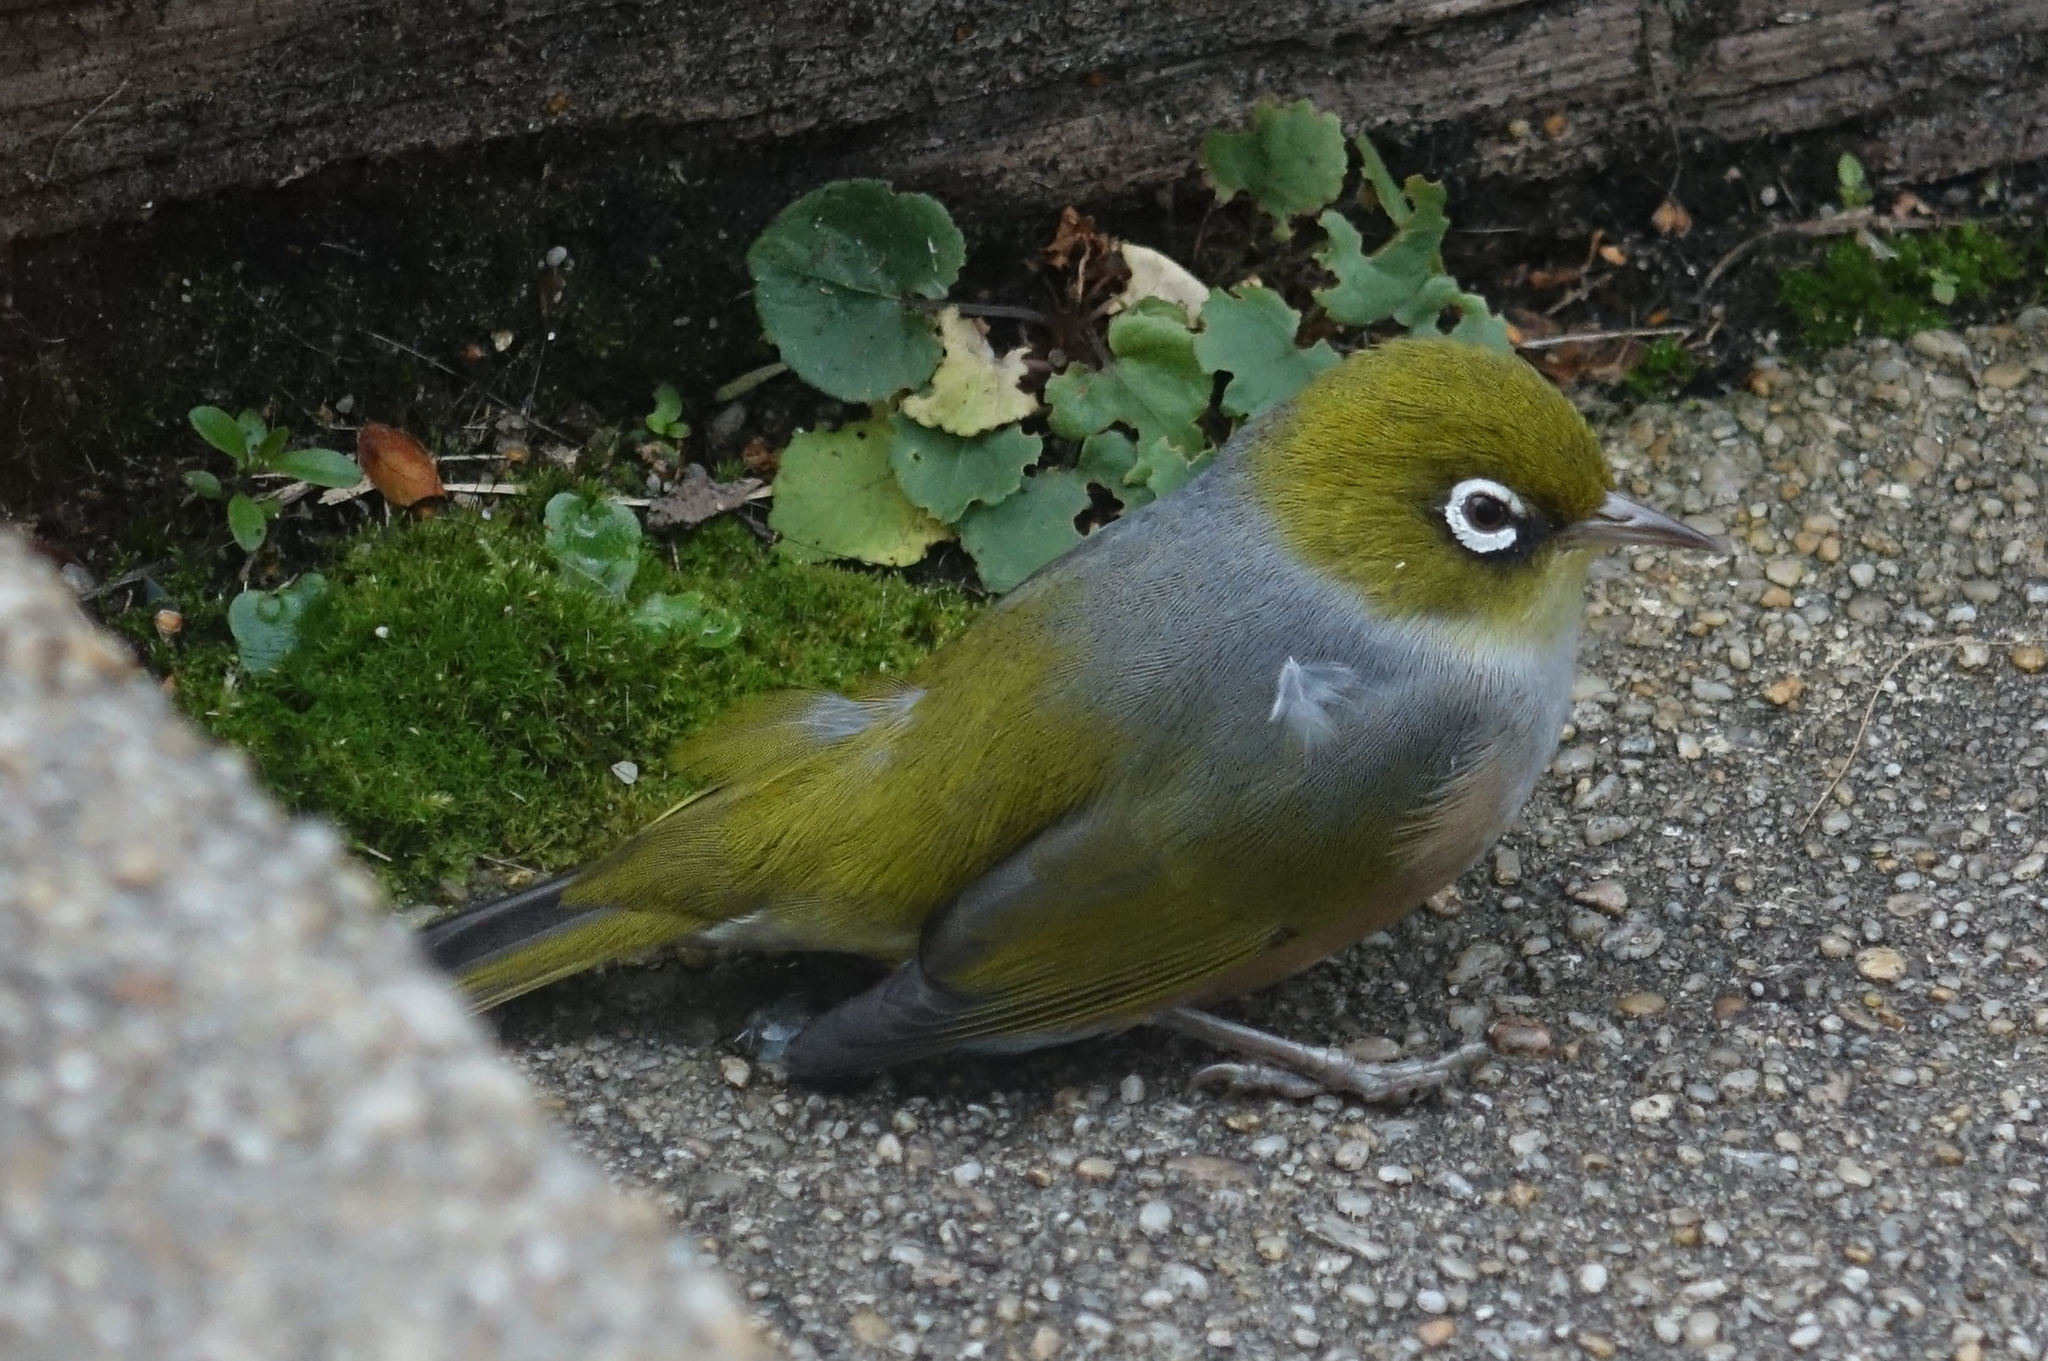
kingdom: Animalia
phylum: Chordata
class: Aves
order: Passeriformes
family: Zosteropidae
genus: Zosterops
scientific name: Zosterops lateralis
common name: Silvereye
